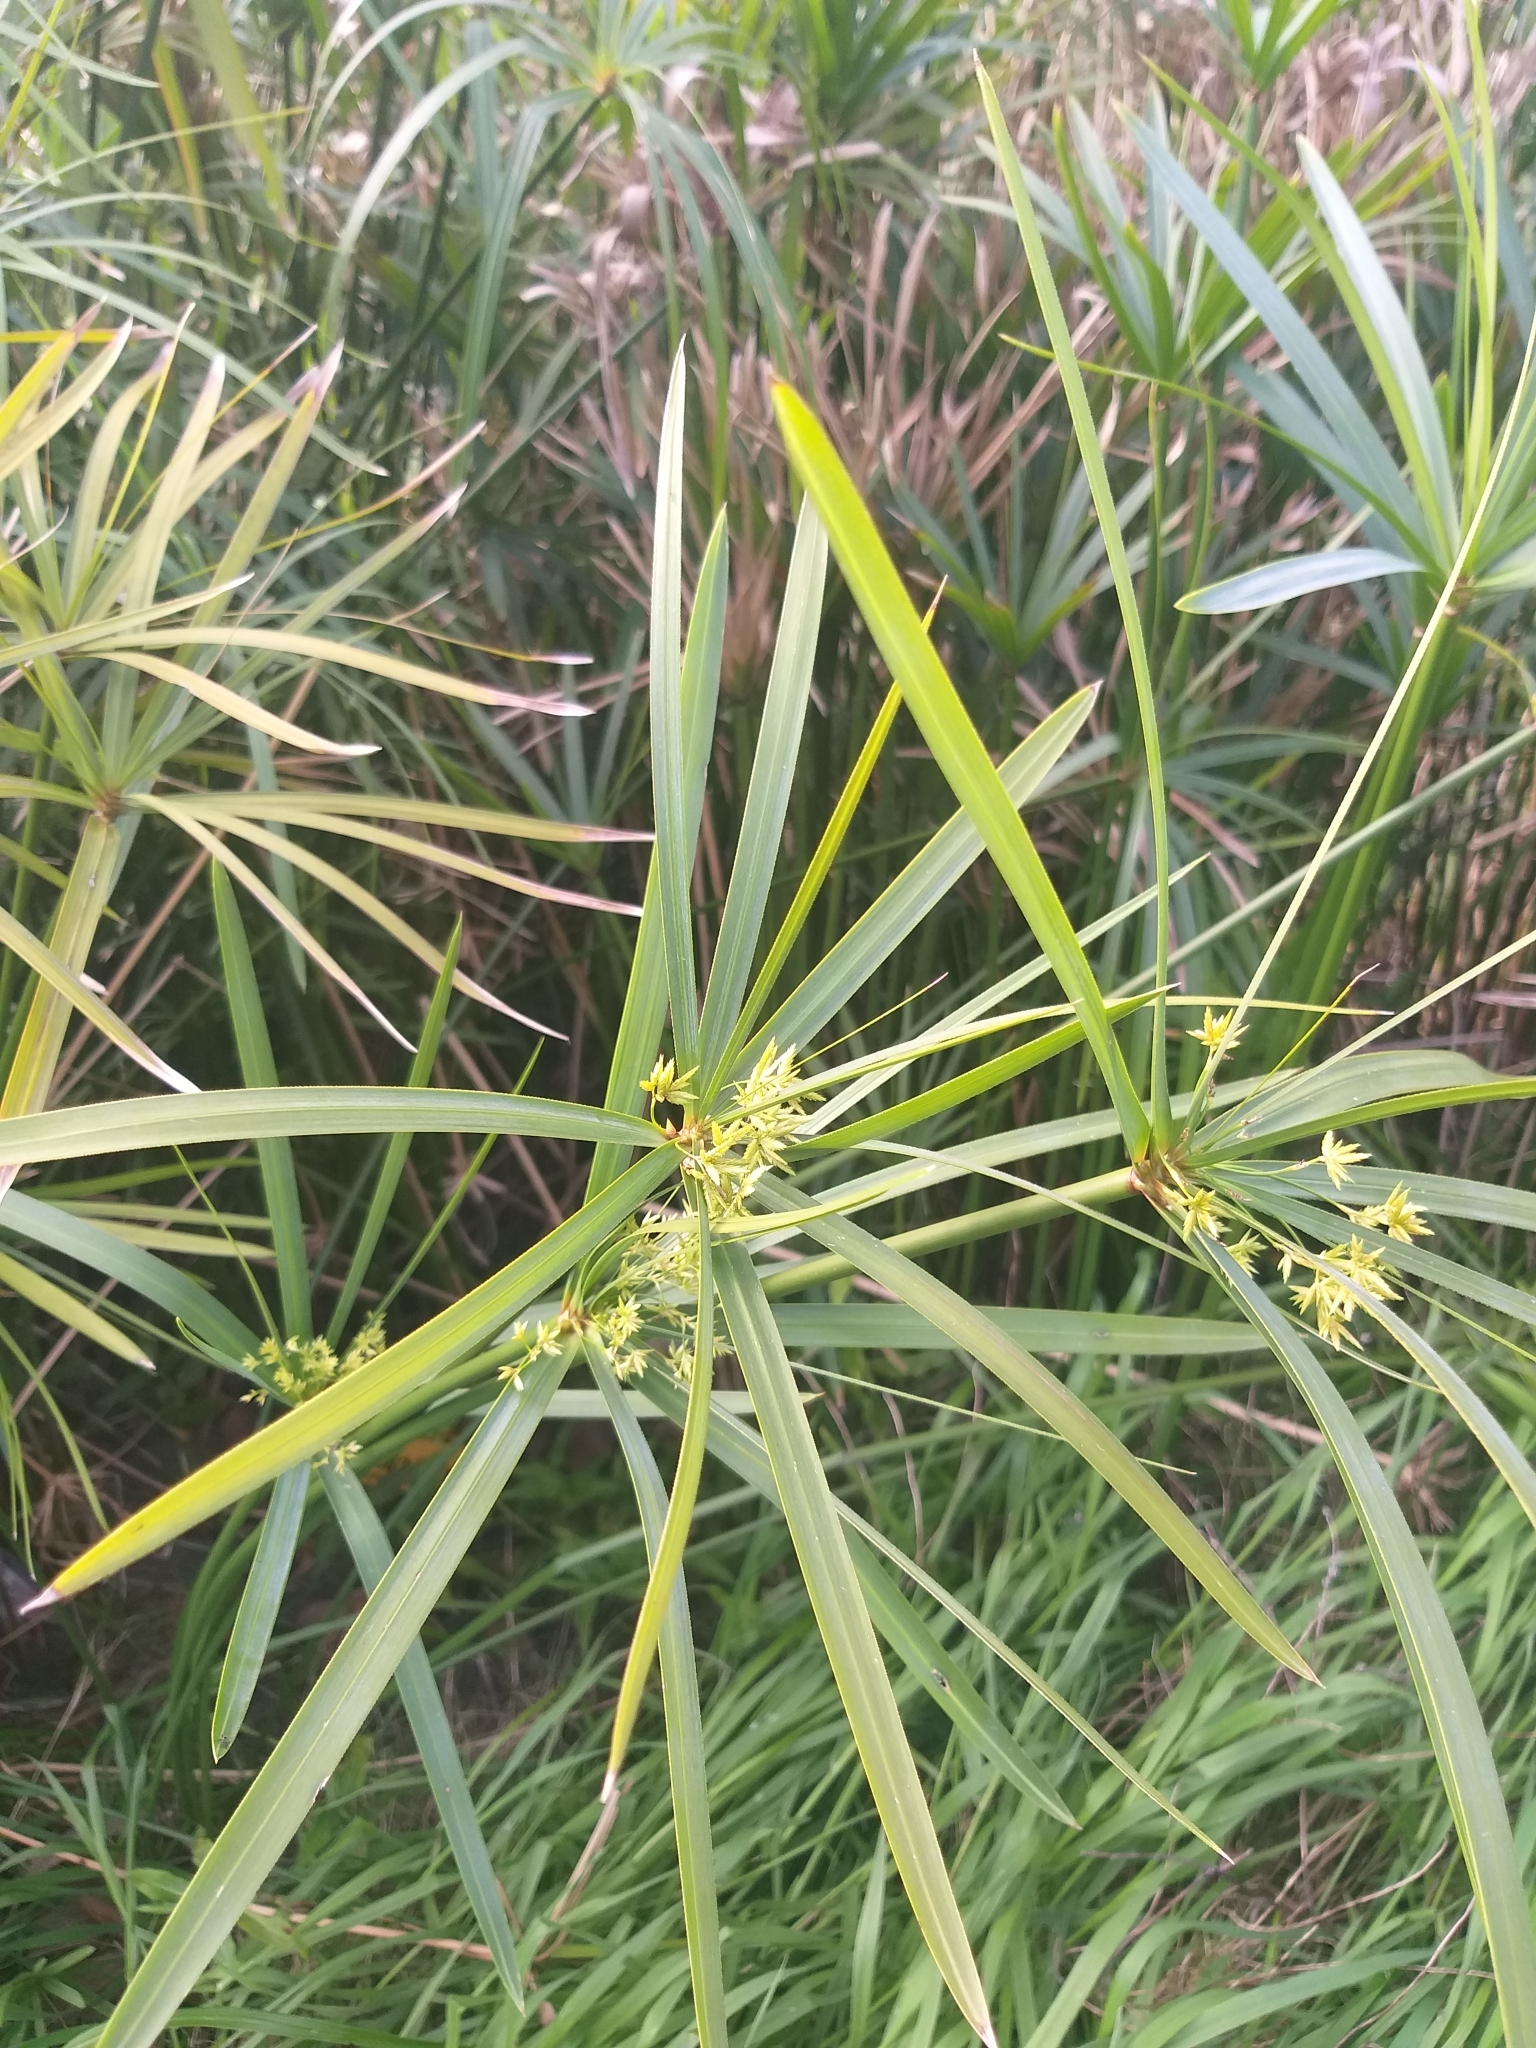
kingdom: Plantae
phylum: Tracheophyta
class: Liliopsida
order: Poales
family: Cyperaceae
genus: Cyperus
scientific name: Cyperus textilis
